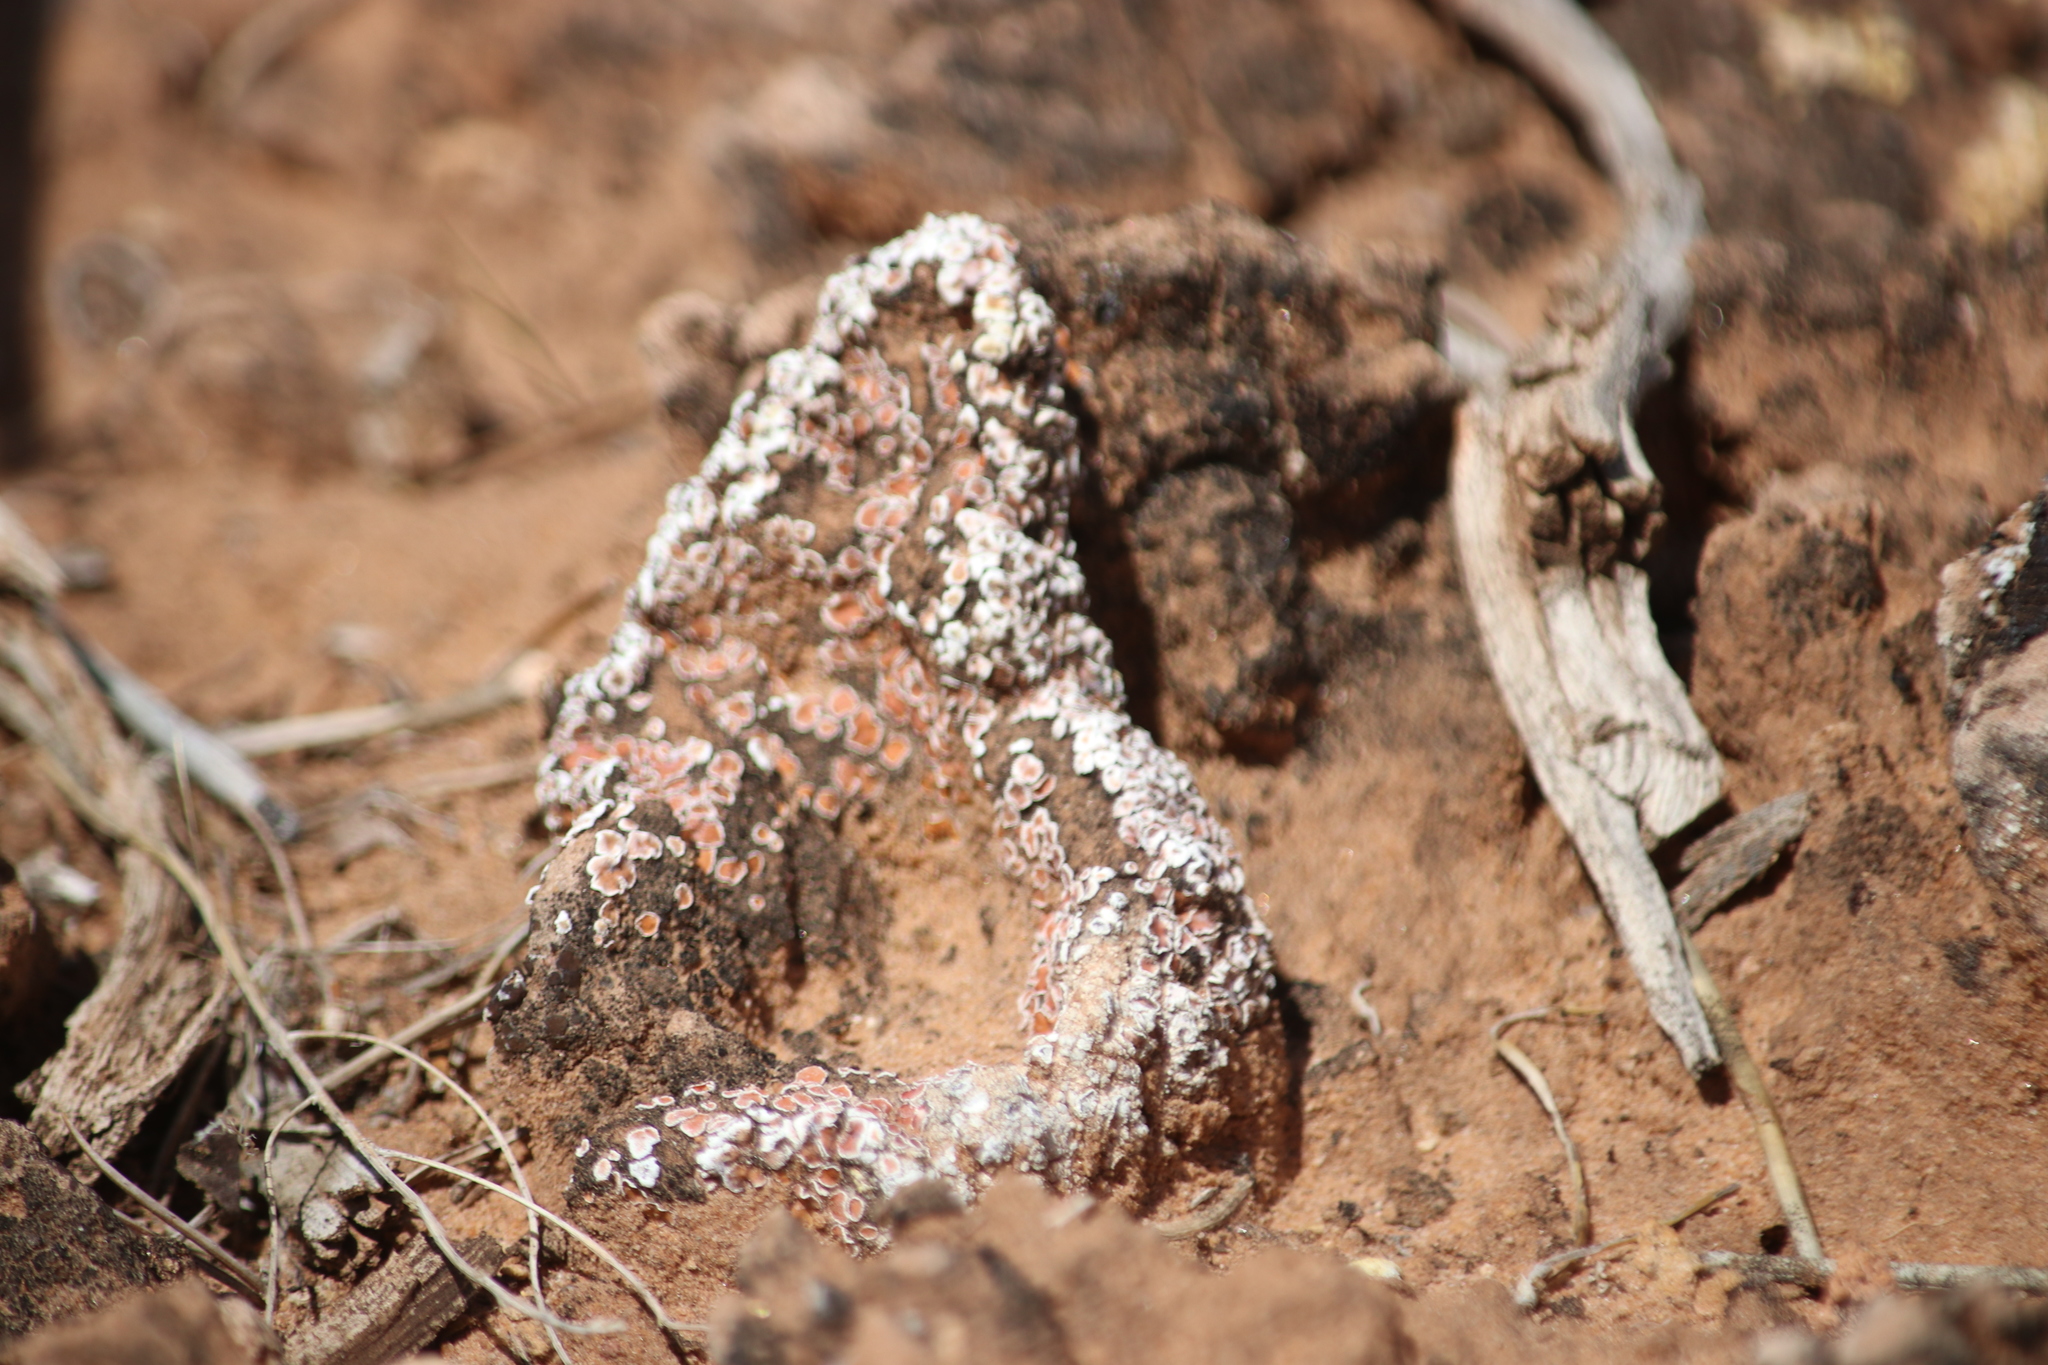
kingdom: Fungi
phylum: Ascomycota
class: Lecanoromycetes
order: Lecanorales
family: Psoraceae
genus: Psora
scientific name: Psora decipiens
